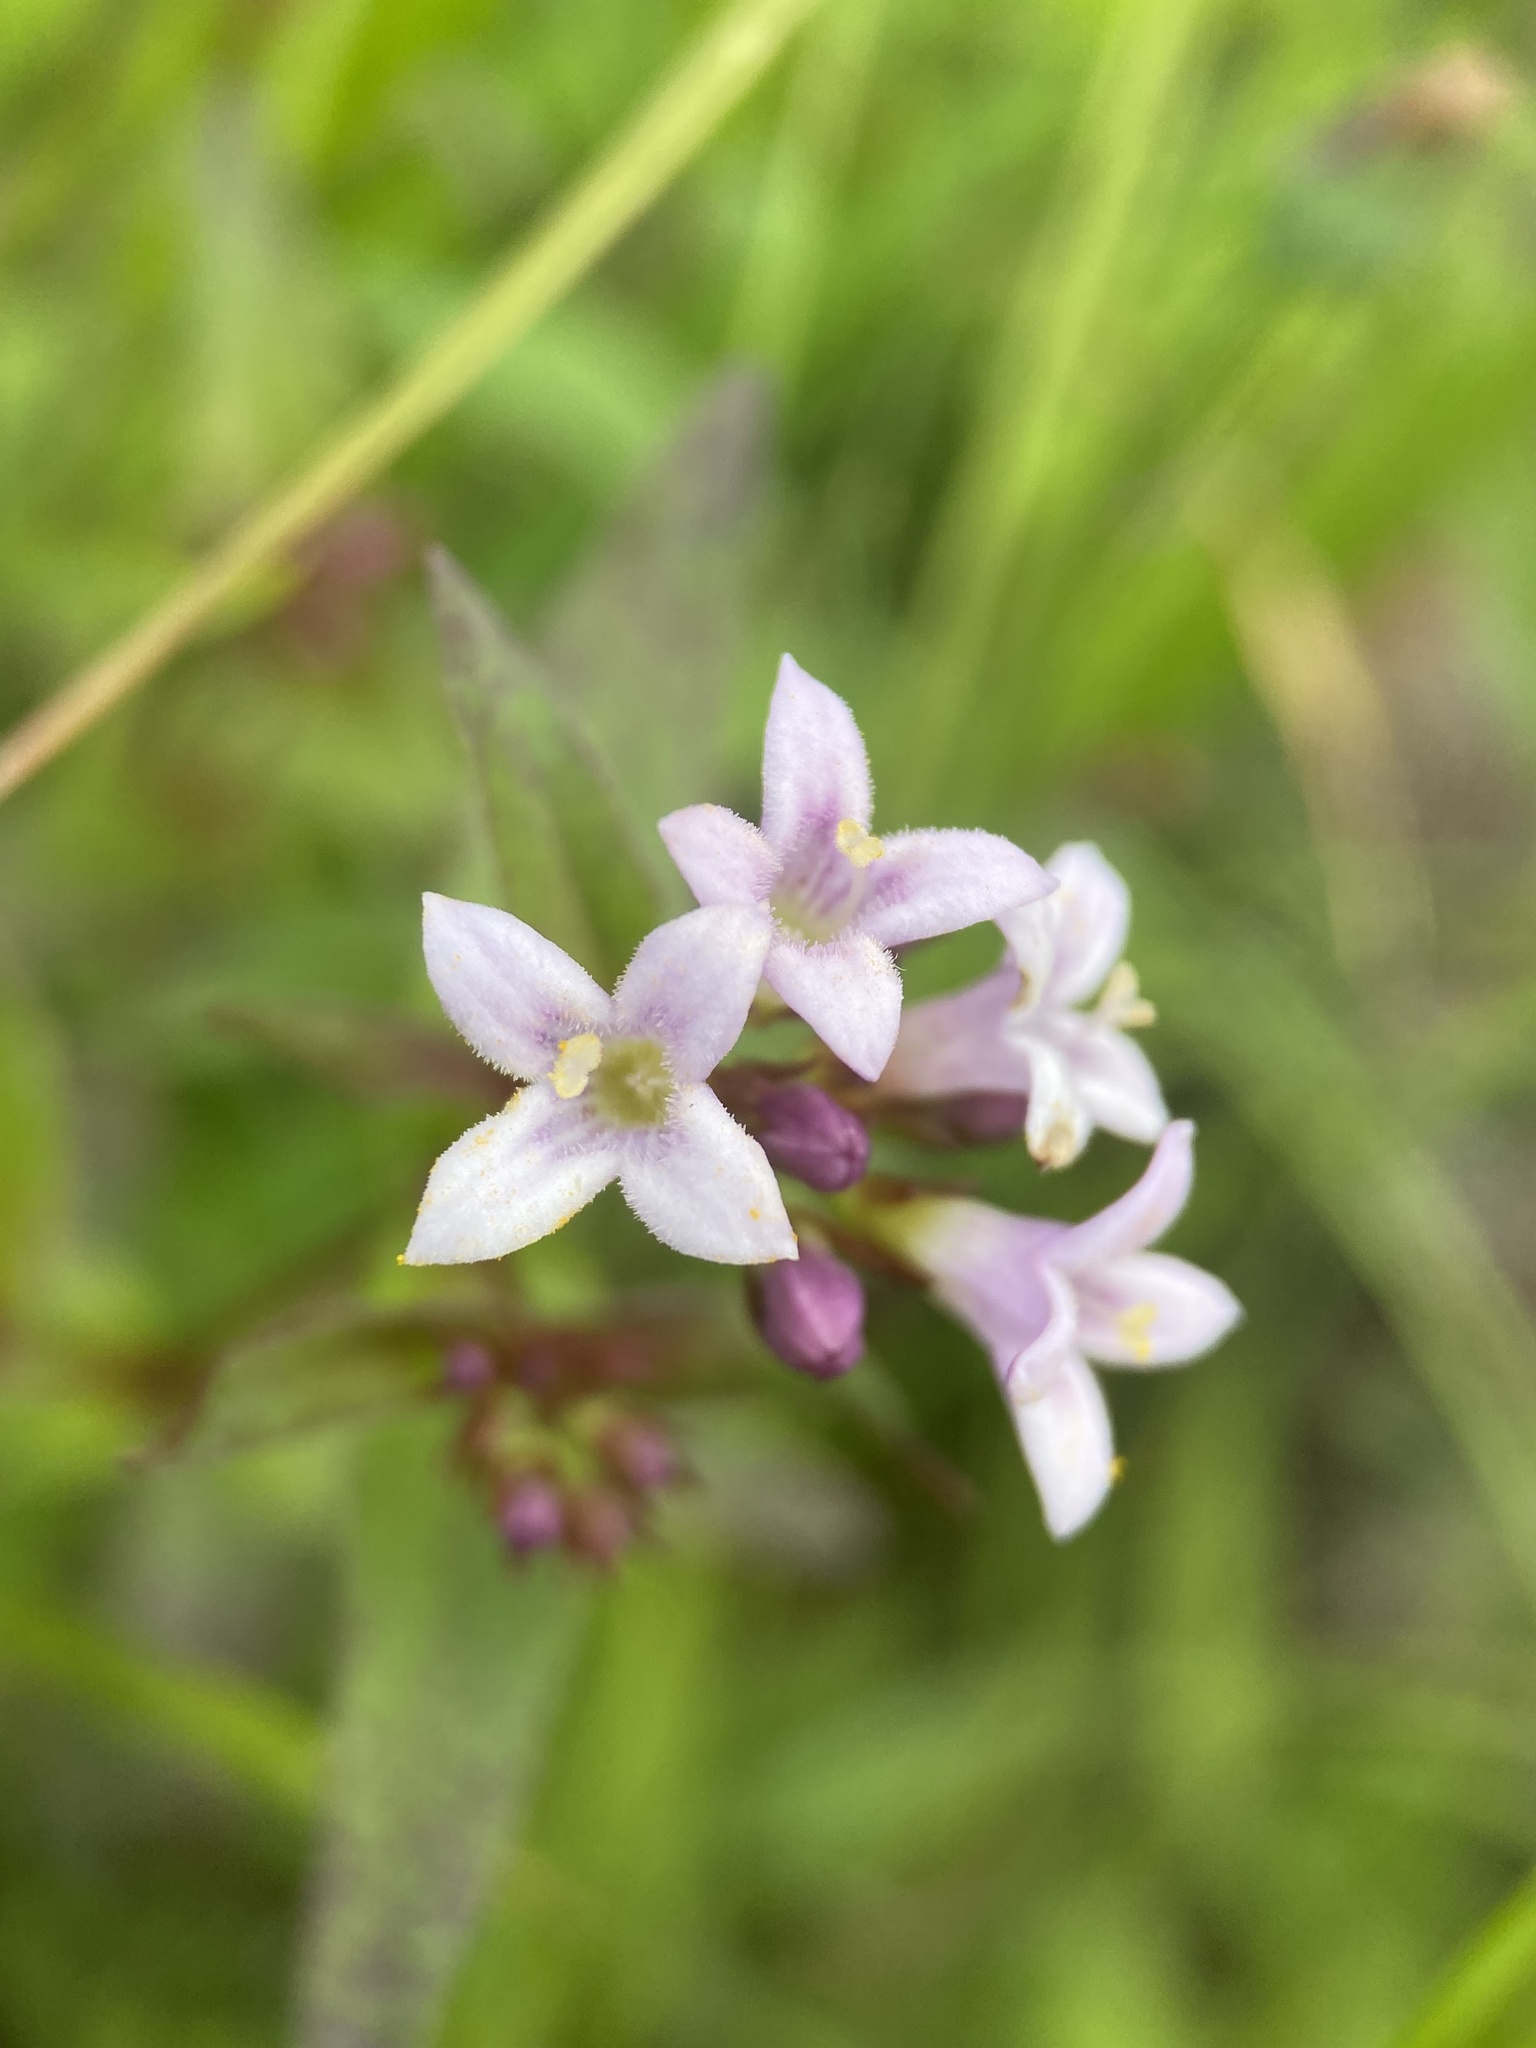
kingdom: Plantae
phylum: Tracheophyta
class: Magnoliopsida
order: Gentianales
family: Rubiaceae
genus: Houstonia
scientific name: Houstonia purpurea
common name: Summer bluet
